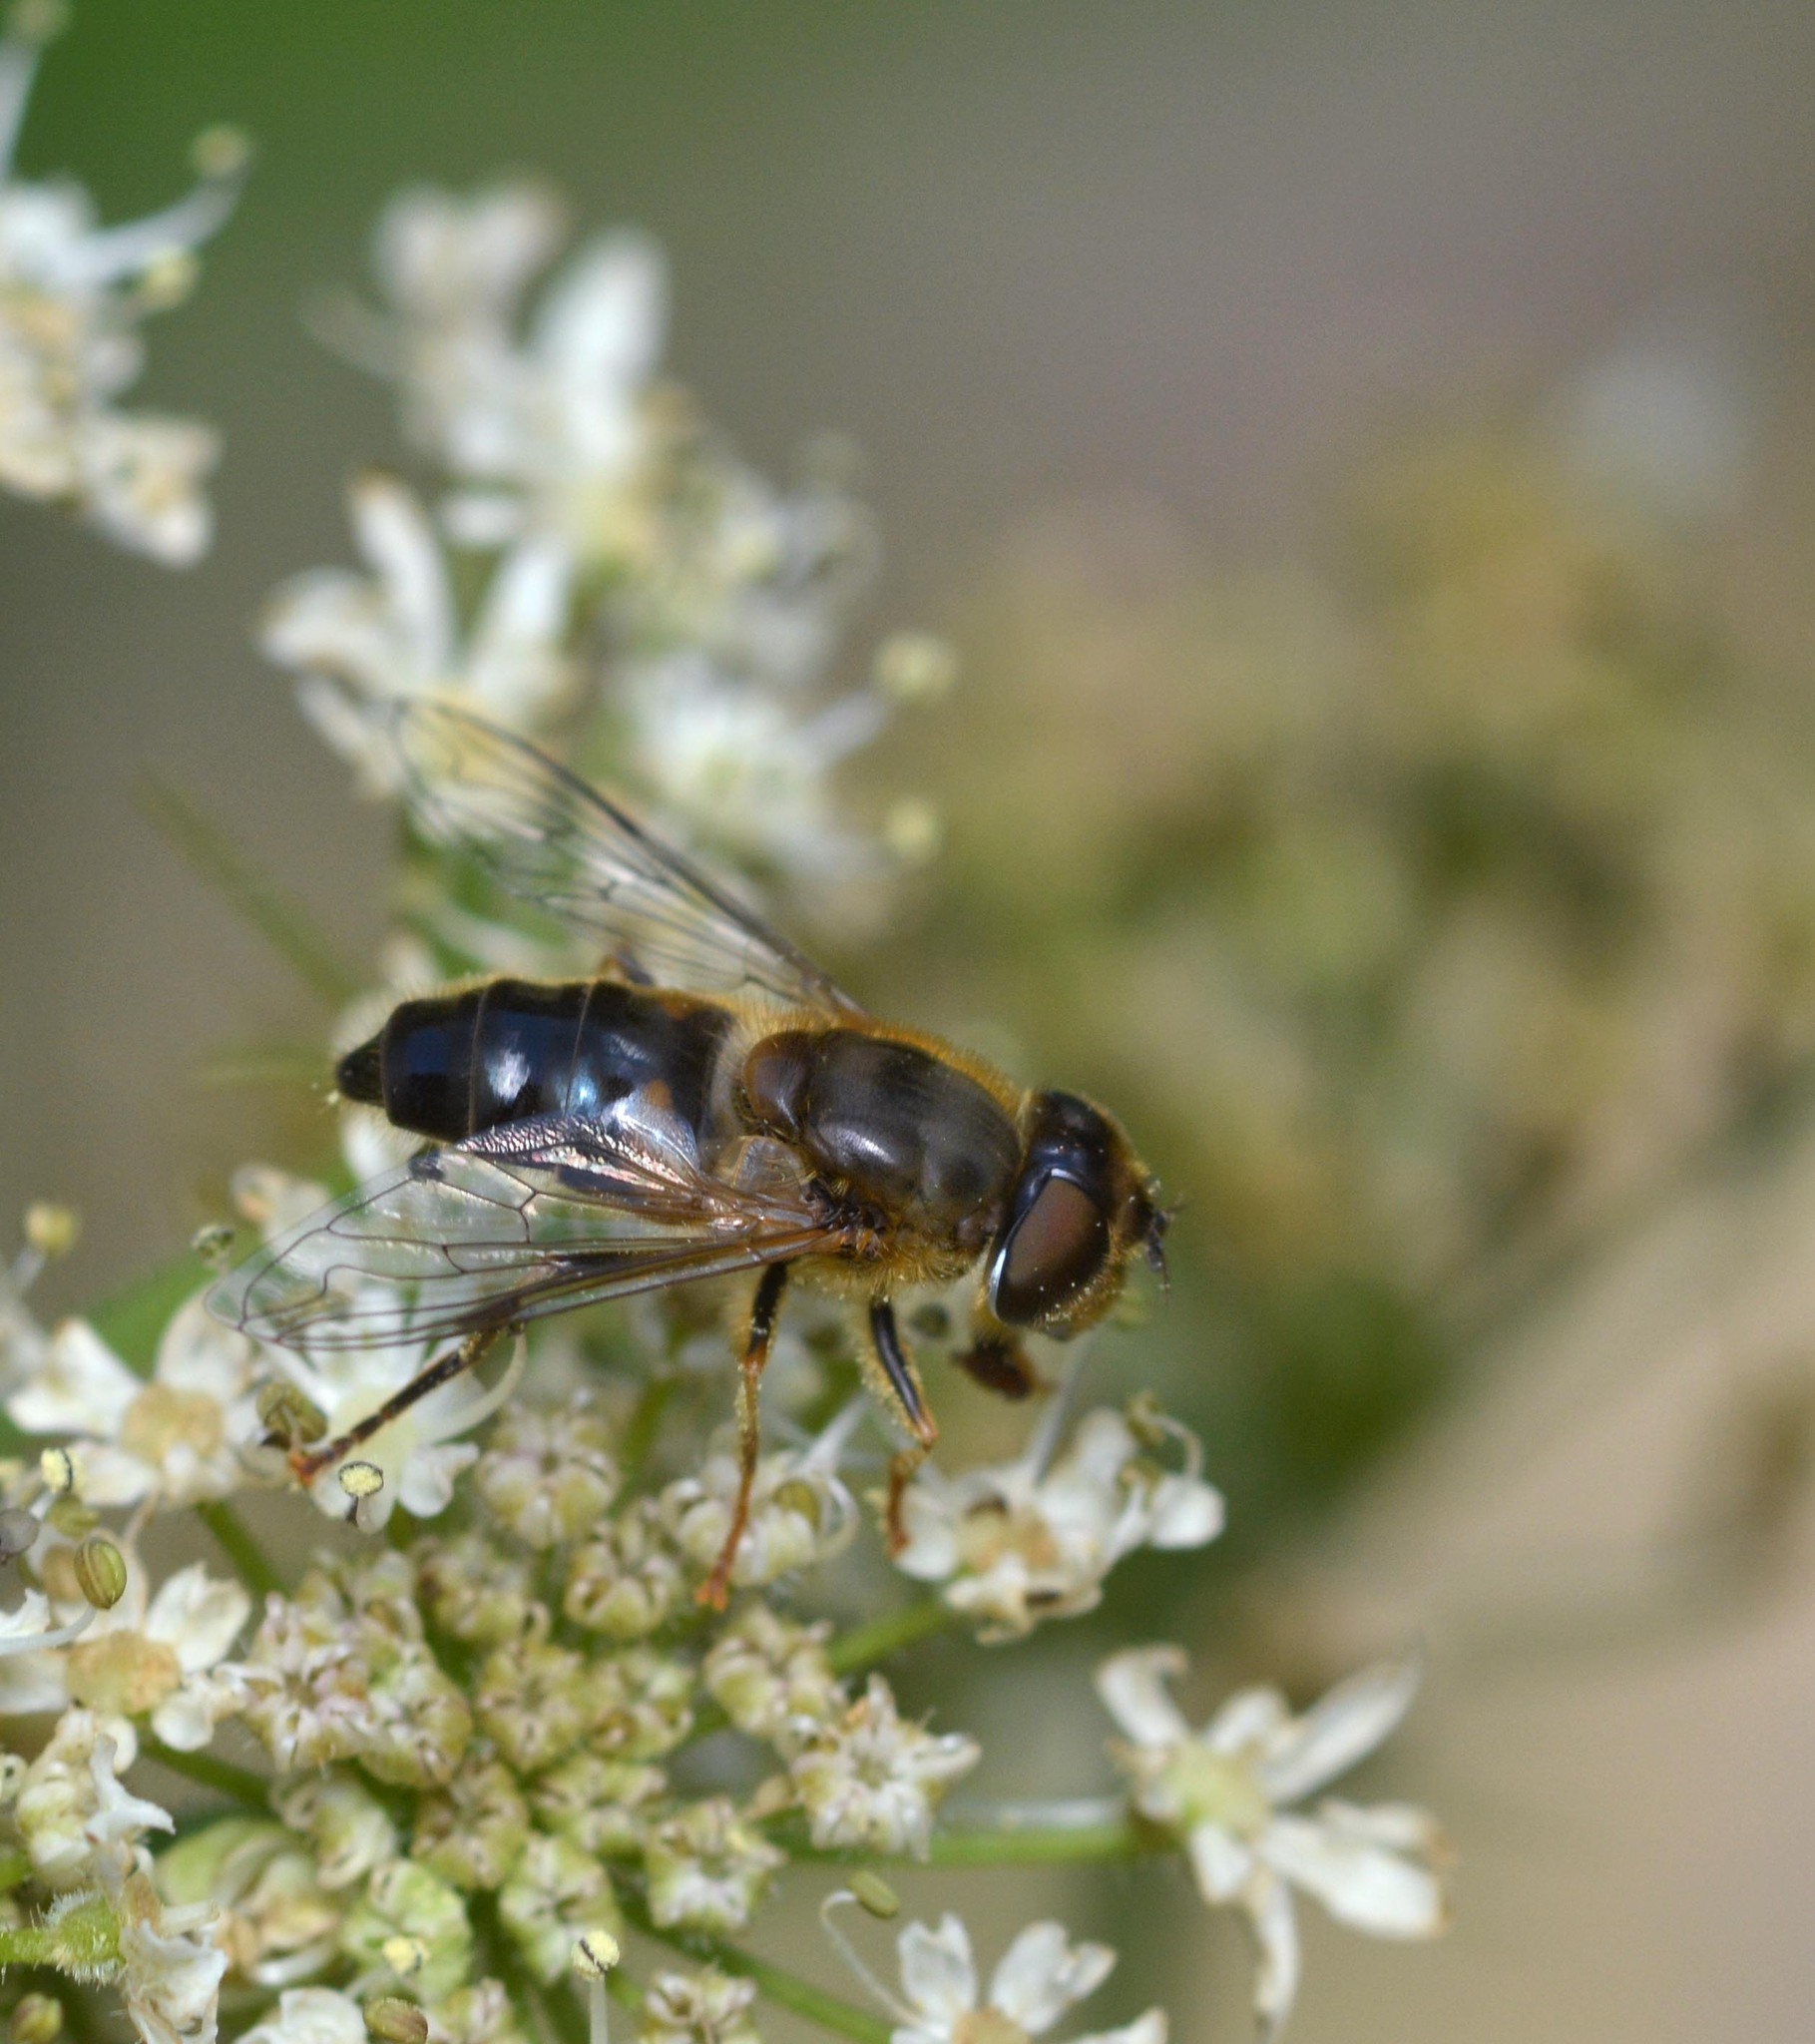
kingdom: Animalia
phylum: Arthropoda
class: Insecta
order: Diptera
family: Syrphidae
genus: Eristalis
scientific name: Eristalis pertinax
